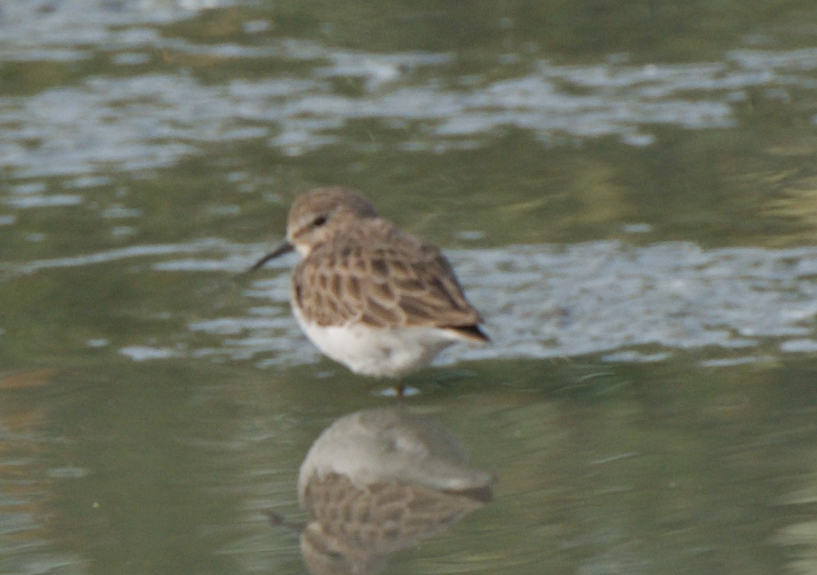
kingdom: Animalia
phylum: Chordata
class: Aves
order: Charadriiformes
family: Scolopacidae
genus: Calidris
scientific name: Calidris minutilla
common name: Least sandpiper
